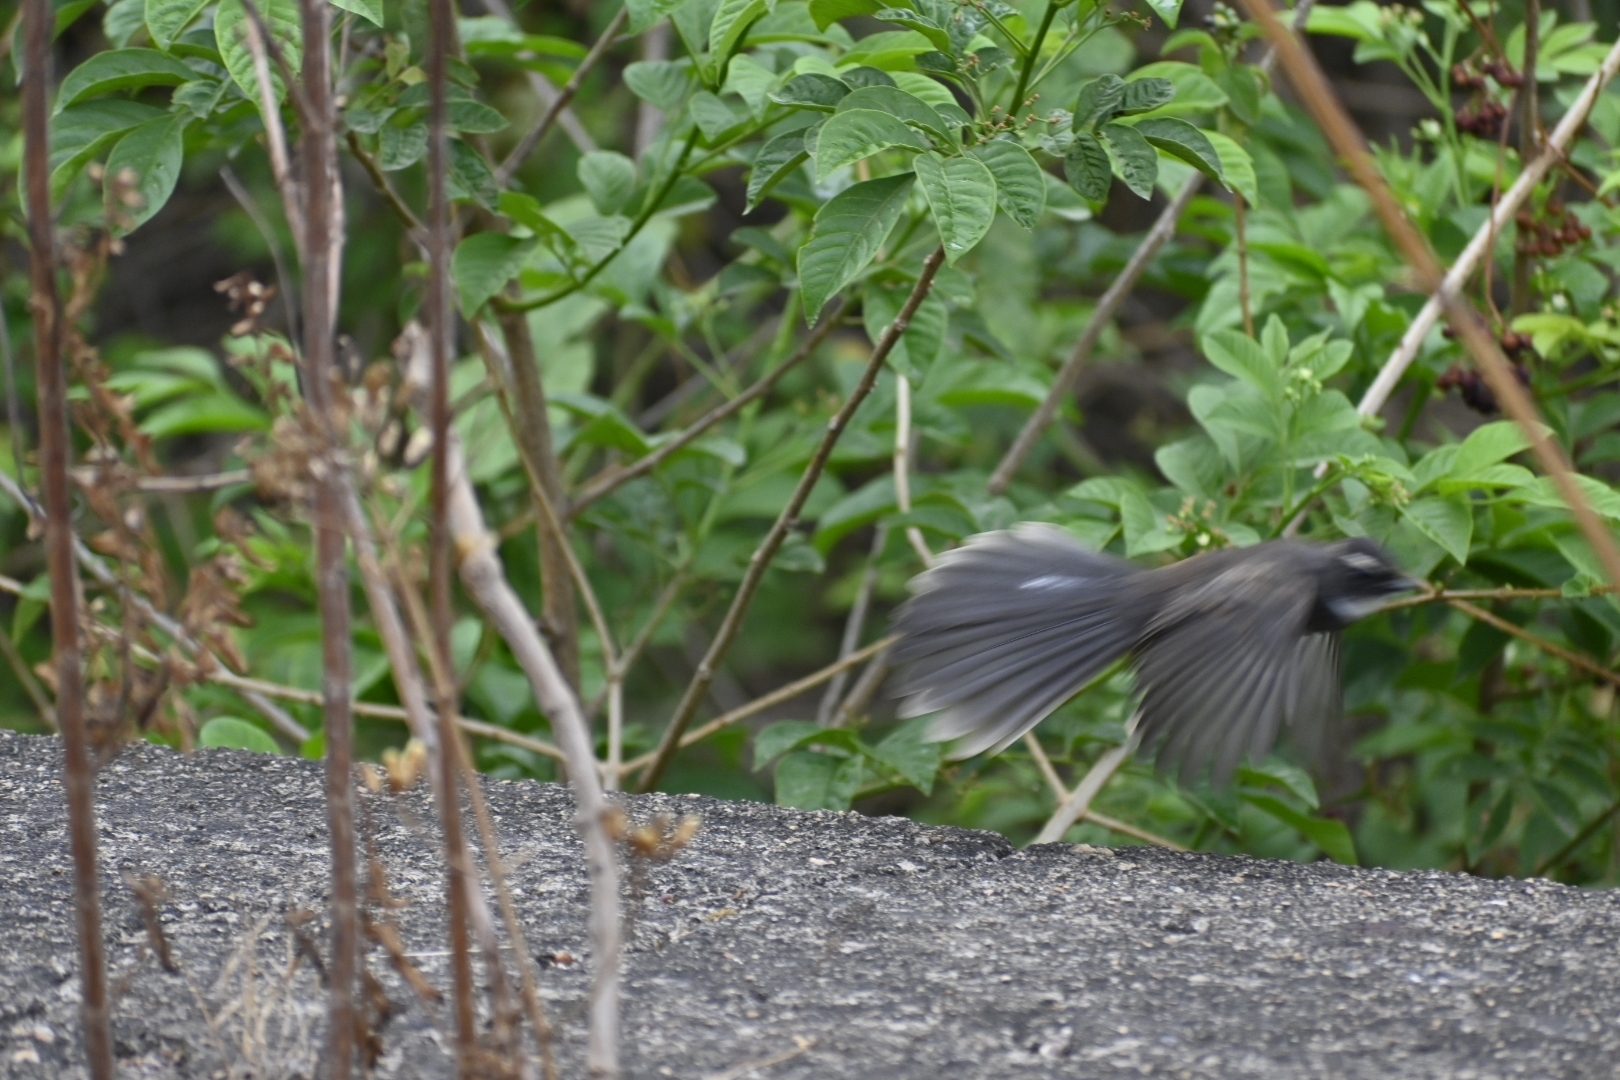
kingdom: Animalia
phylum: Chordata
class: Aves
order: Passeriformes
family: Rhipiduridae
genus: Rhipidura
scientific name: Rhipidura albicollis
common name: White-throated fantail
